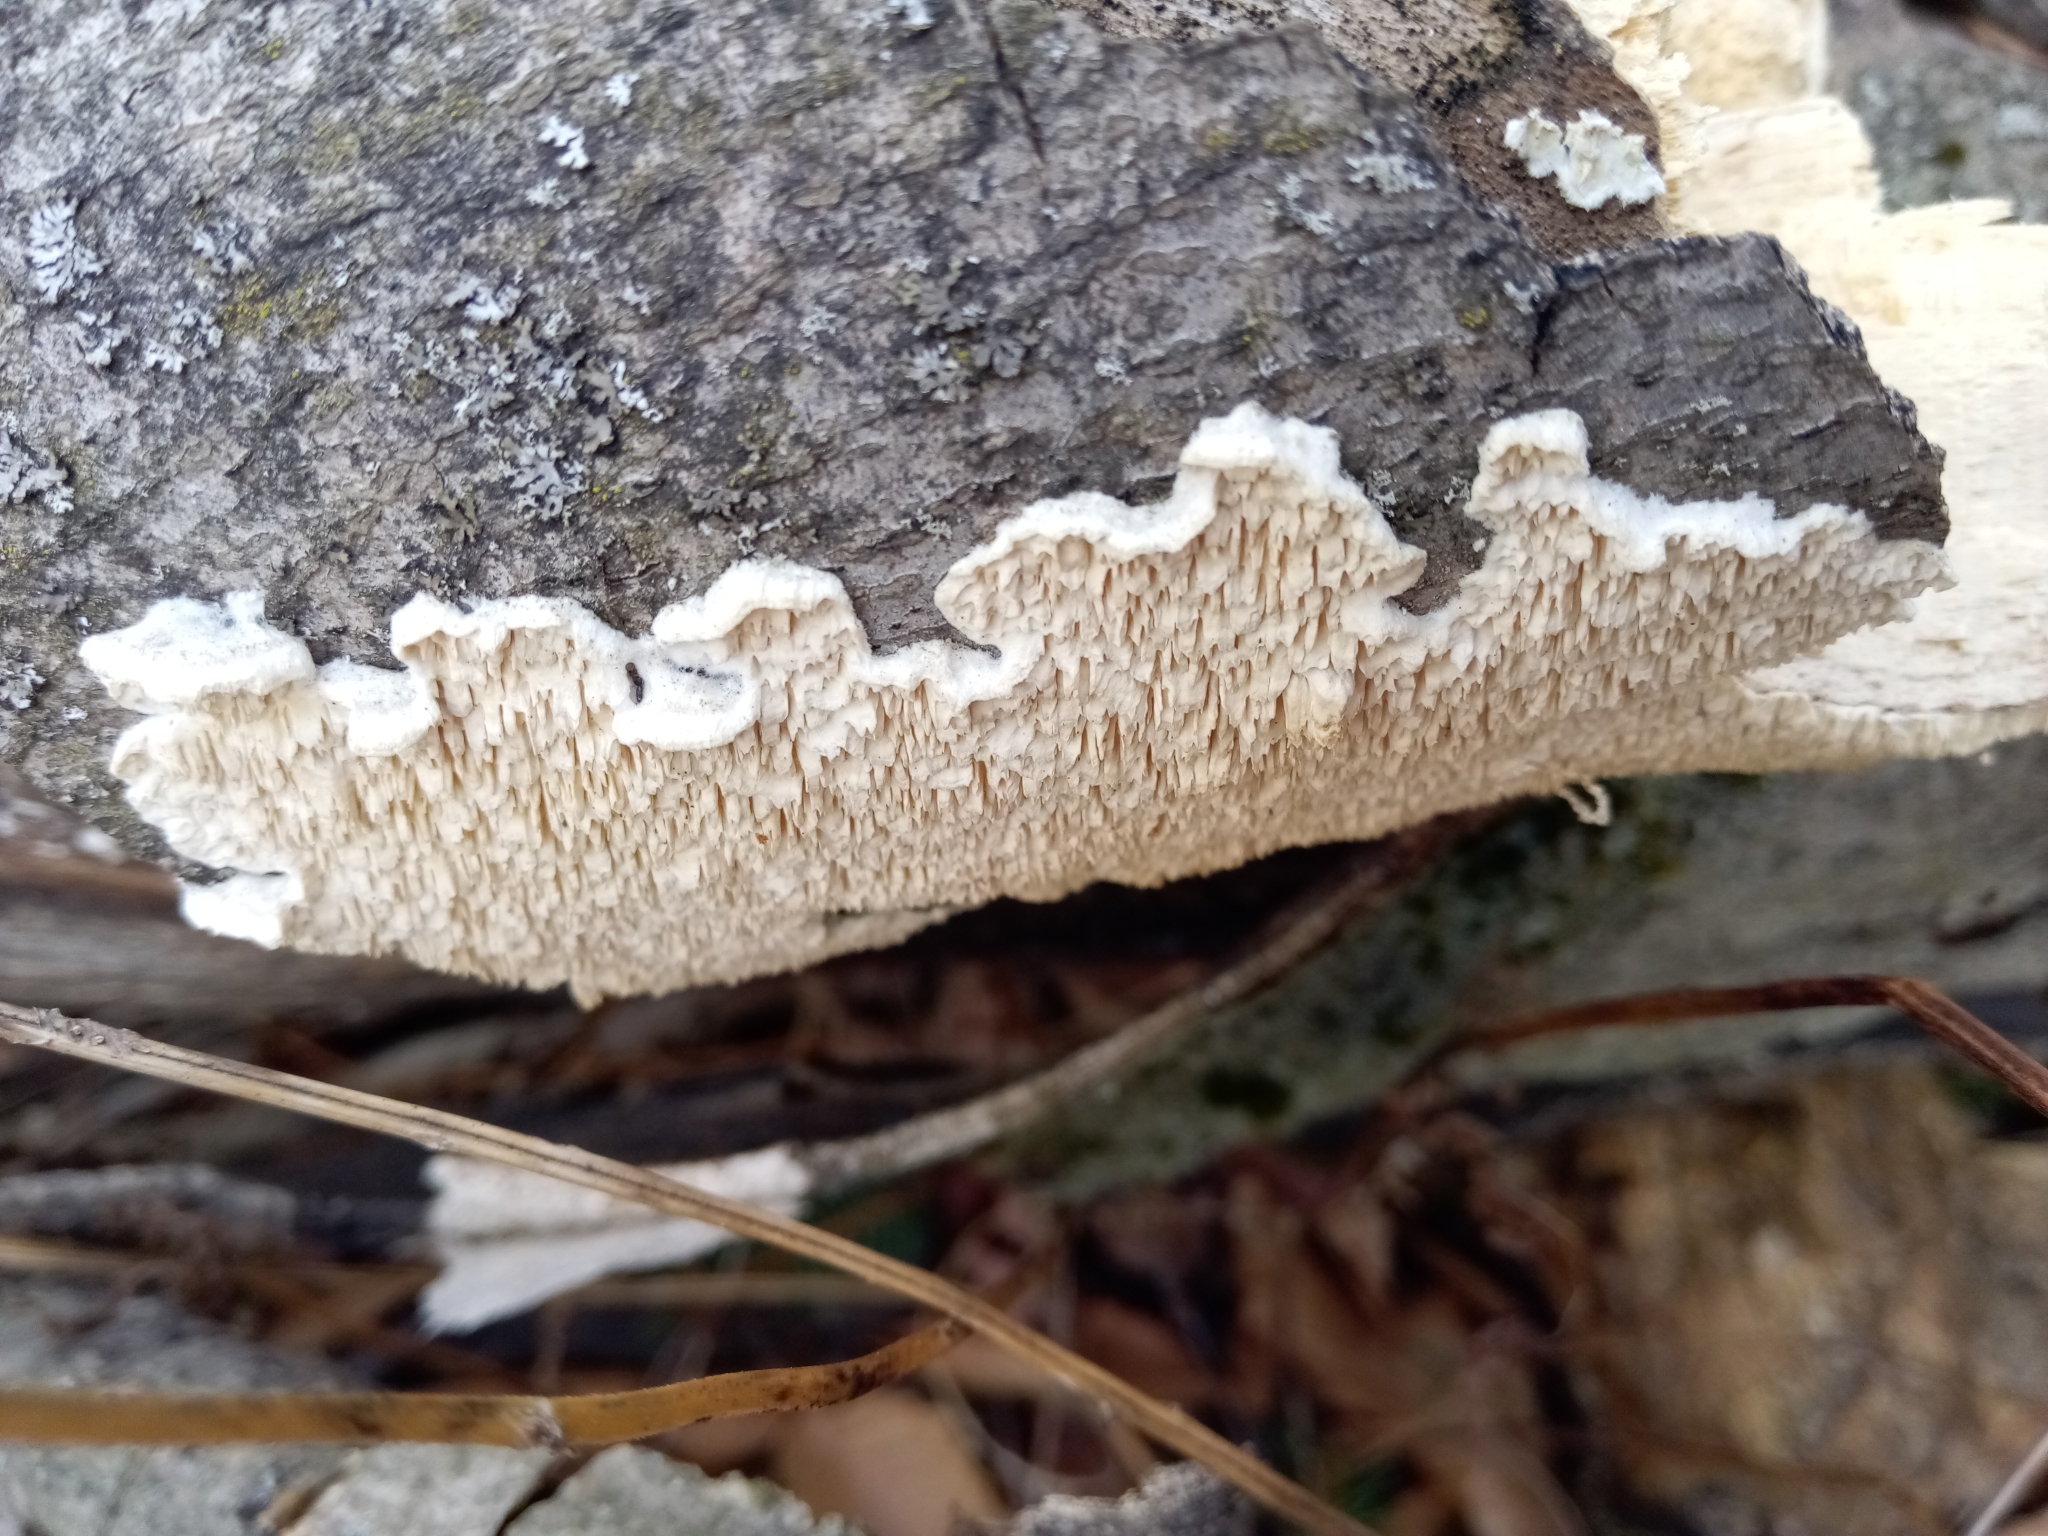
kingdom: Fungi
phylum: Basidiomycota
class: Agaricomycetes
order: Polyporales
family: Irpicaceae
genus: Irpex
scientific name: Irpex lacteus
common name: Milk-white toothed polypore
